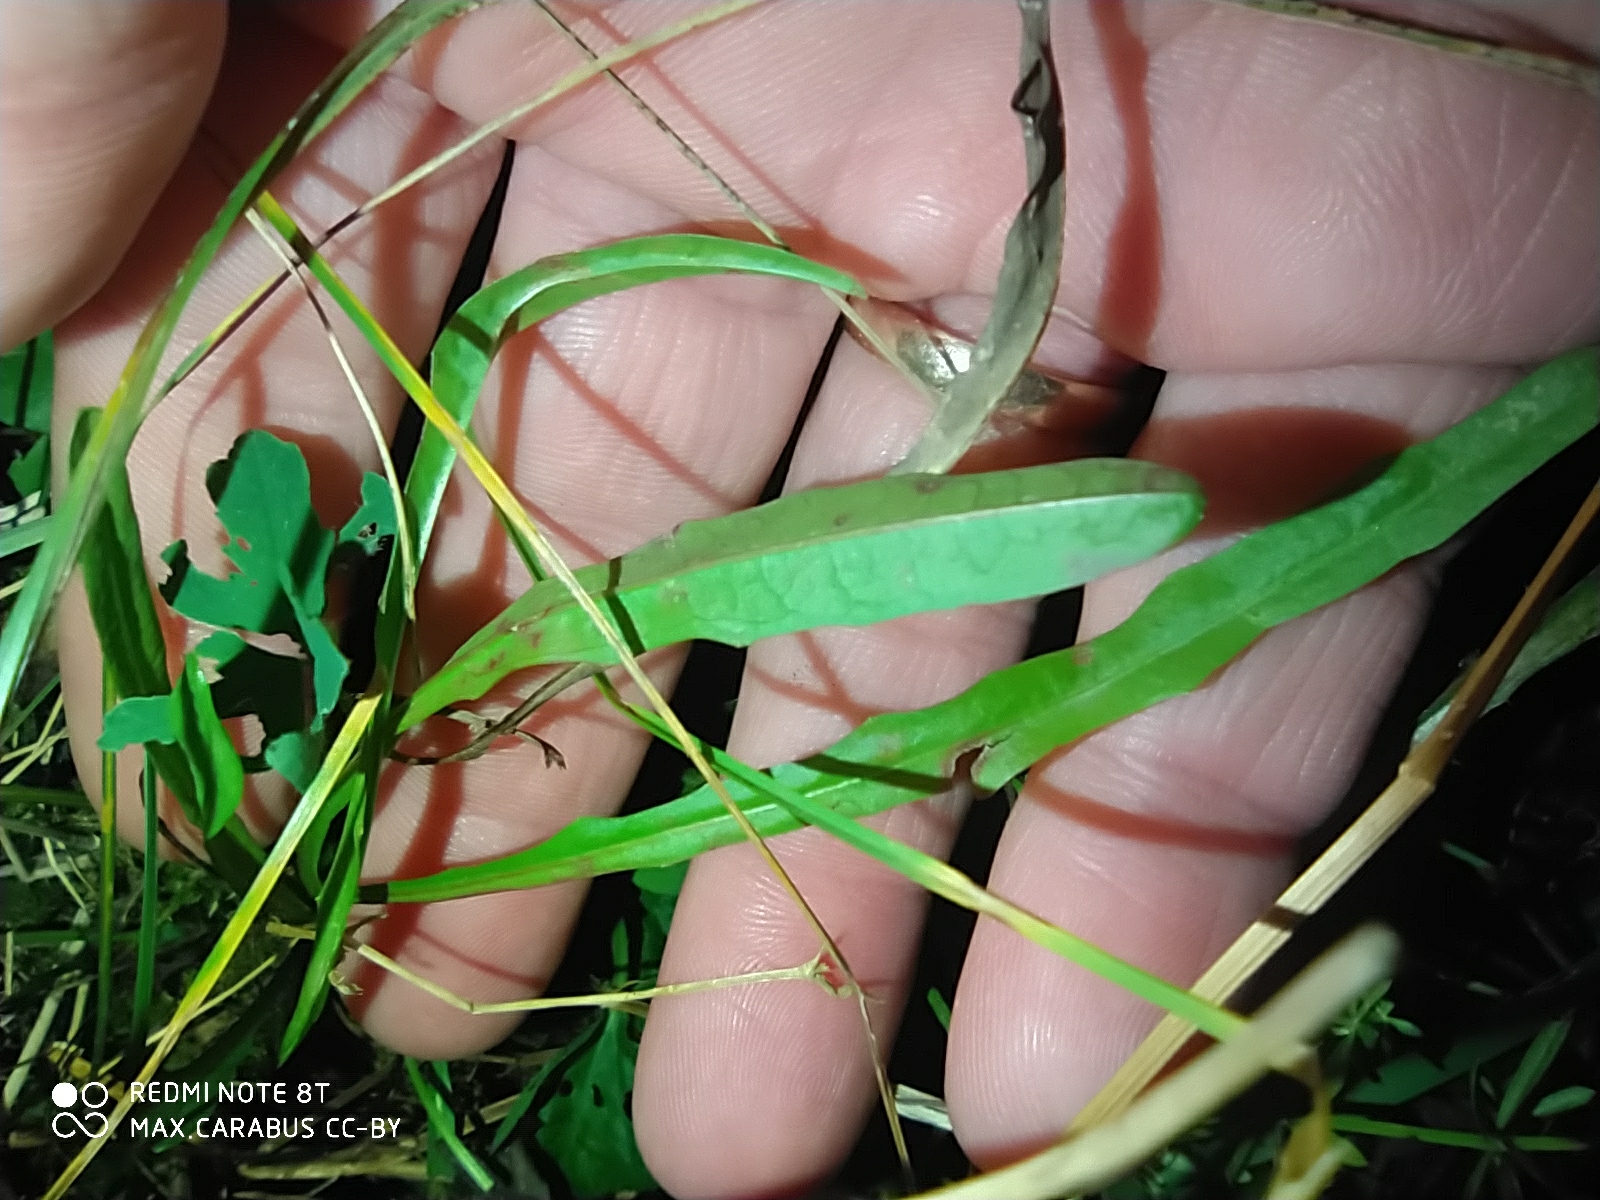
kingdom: Plantae
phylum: Tracheophyta
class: Magnoliopsida
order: Asterales
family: Asteraceae
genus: Scorzoneroides
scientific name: Scorzoneroides autumnalis
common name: Autumn hawkbit
